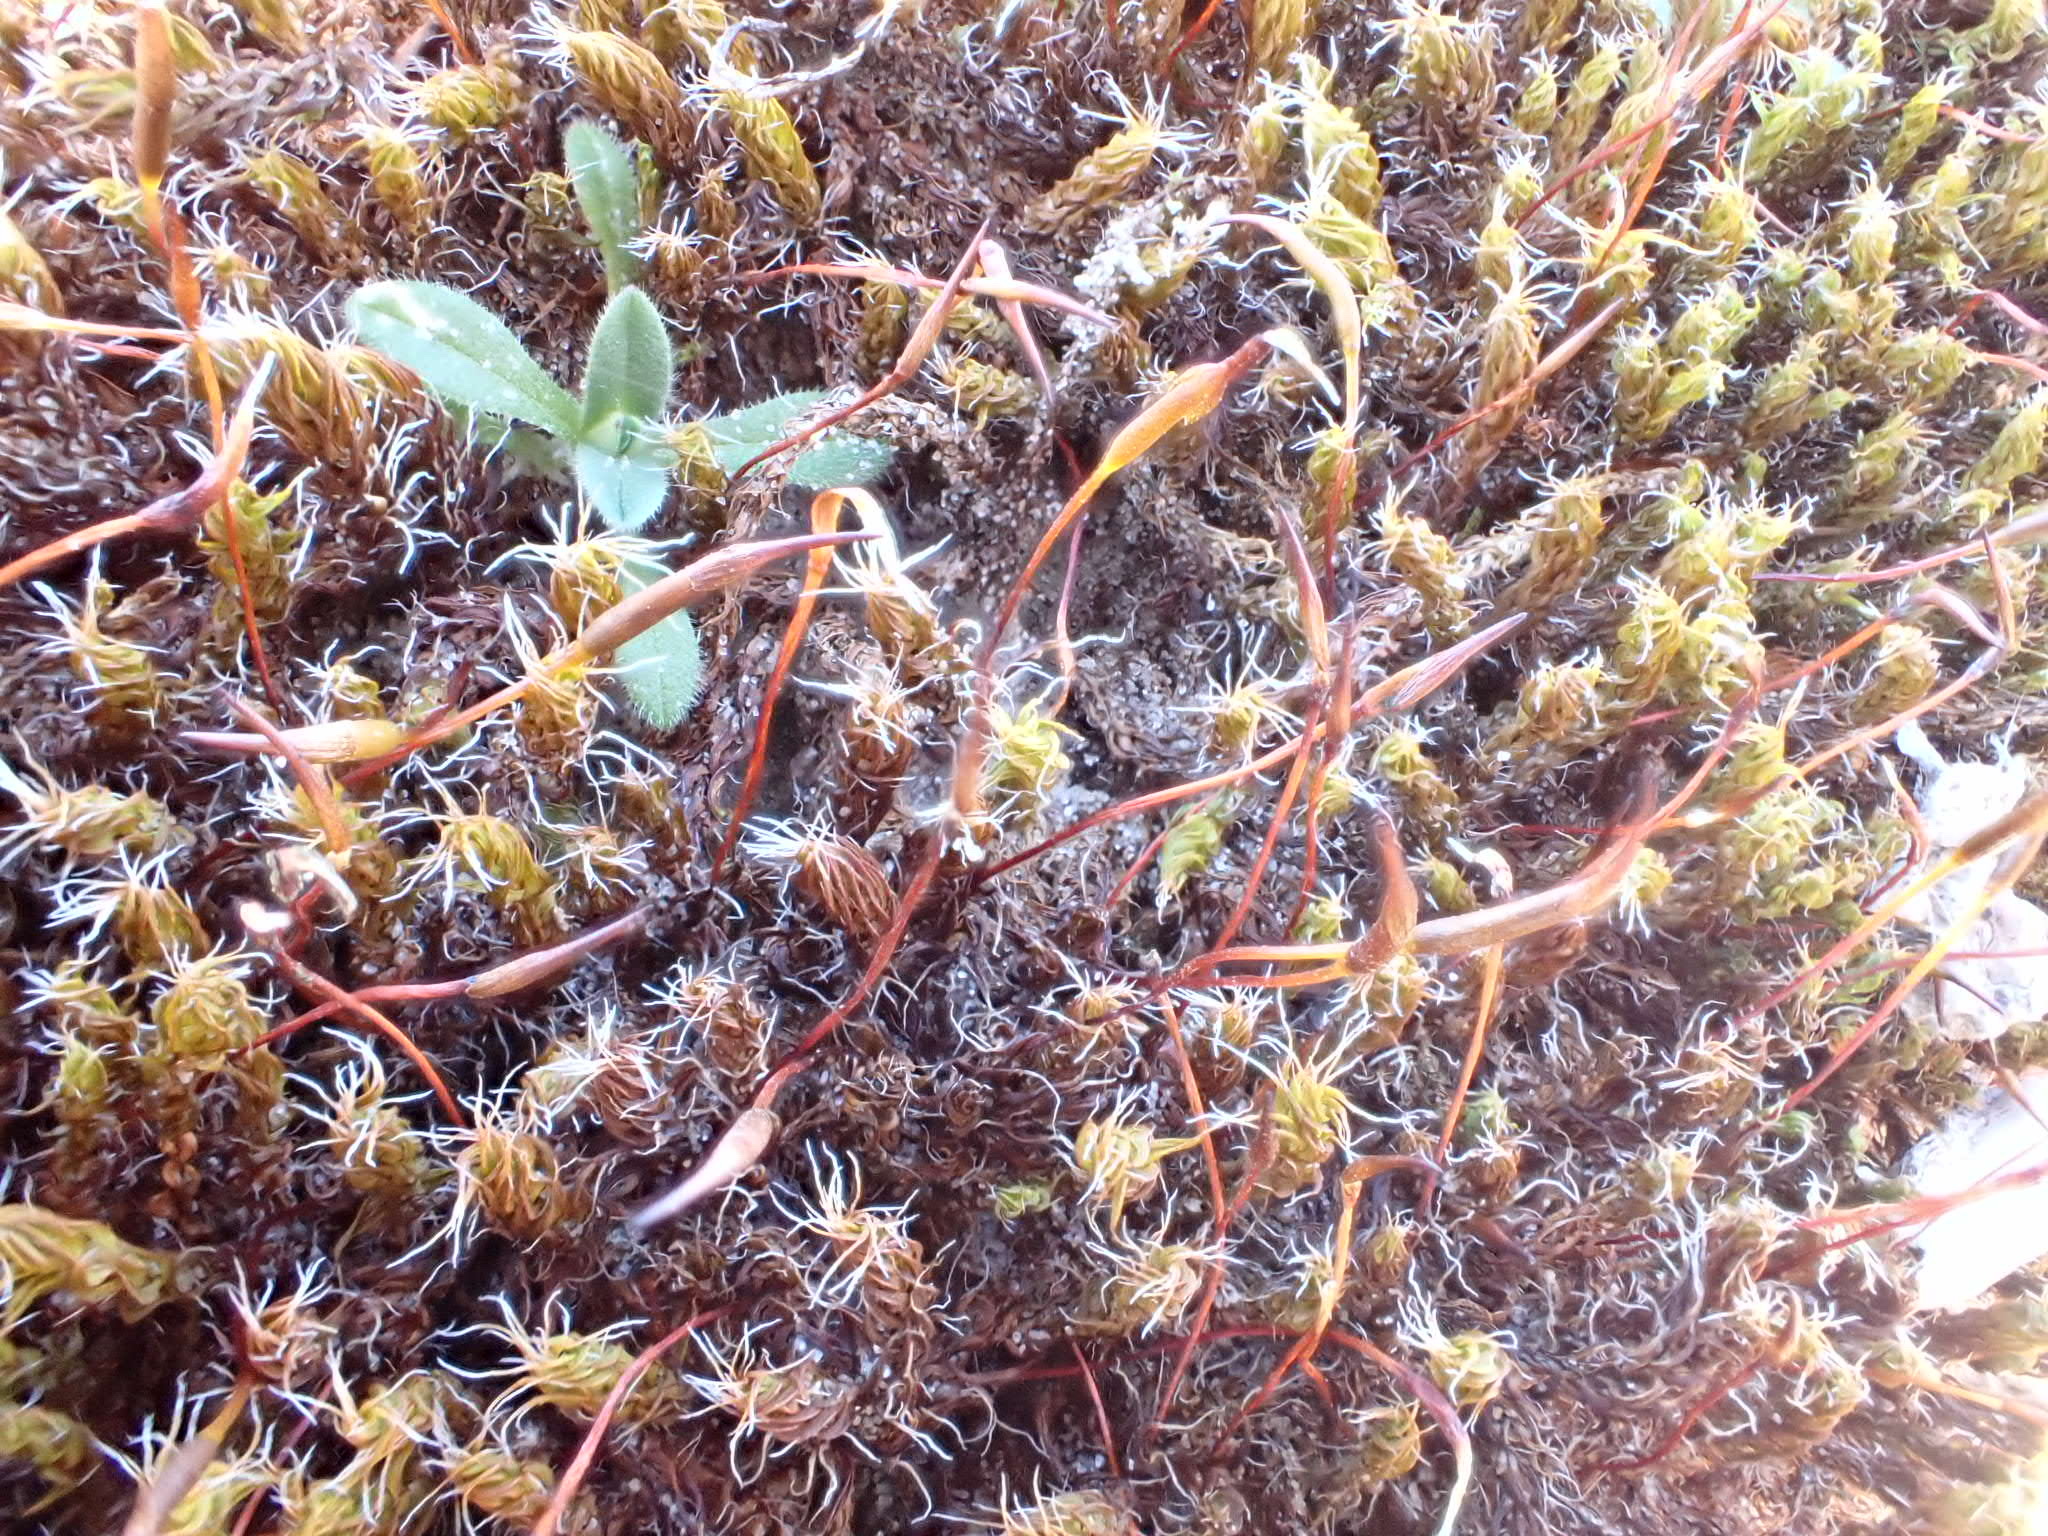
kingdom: Plantae
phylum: Bryophyta
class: Bryopsida
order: Pottiales
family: Pottiaceae
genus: Syntrichia
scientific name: Syntrichia ruralis
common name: Sidewalk screw moss
